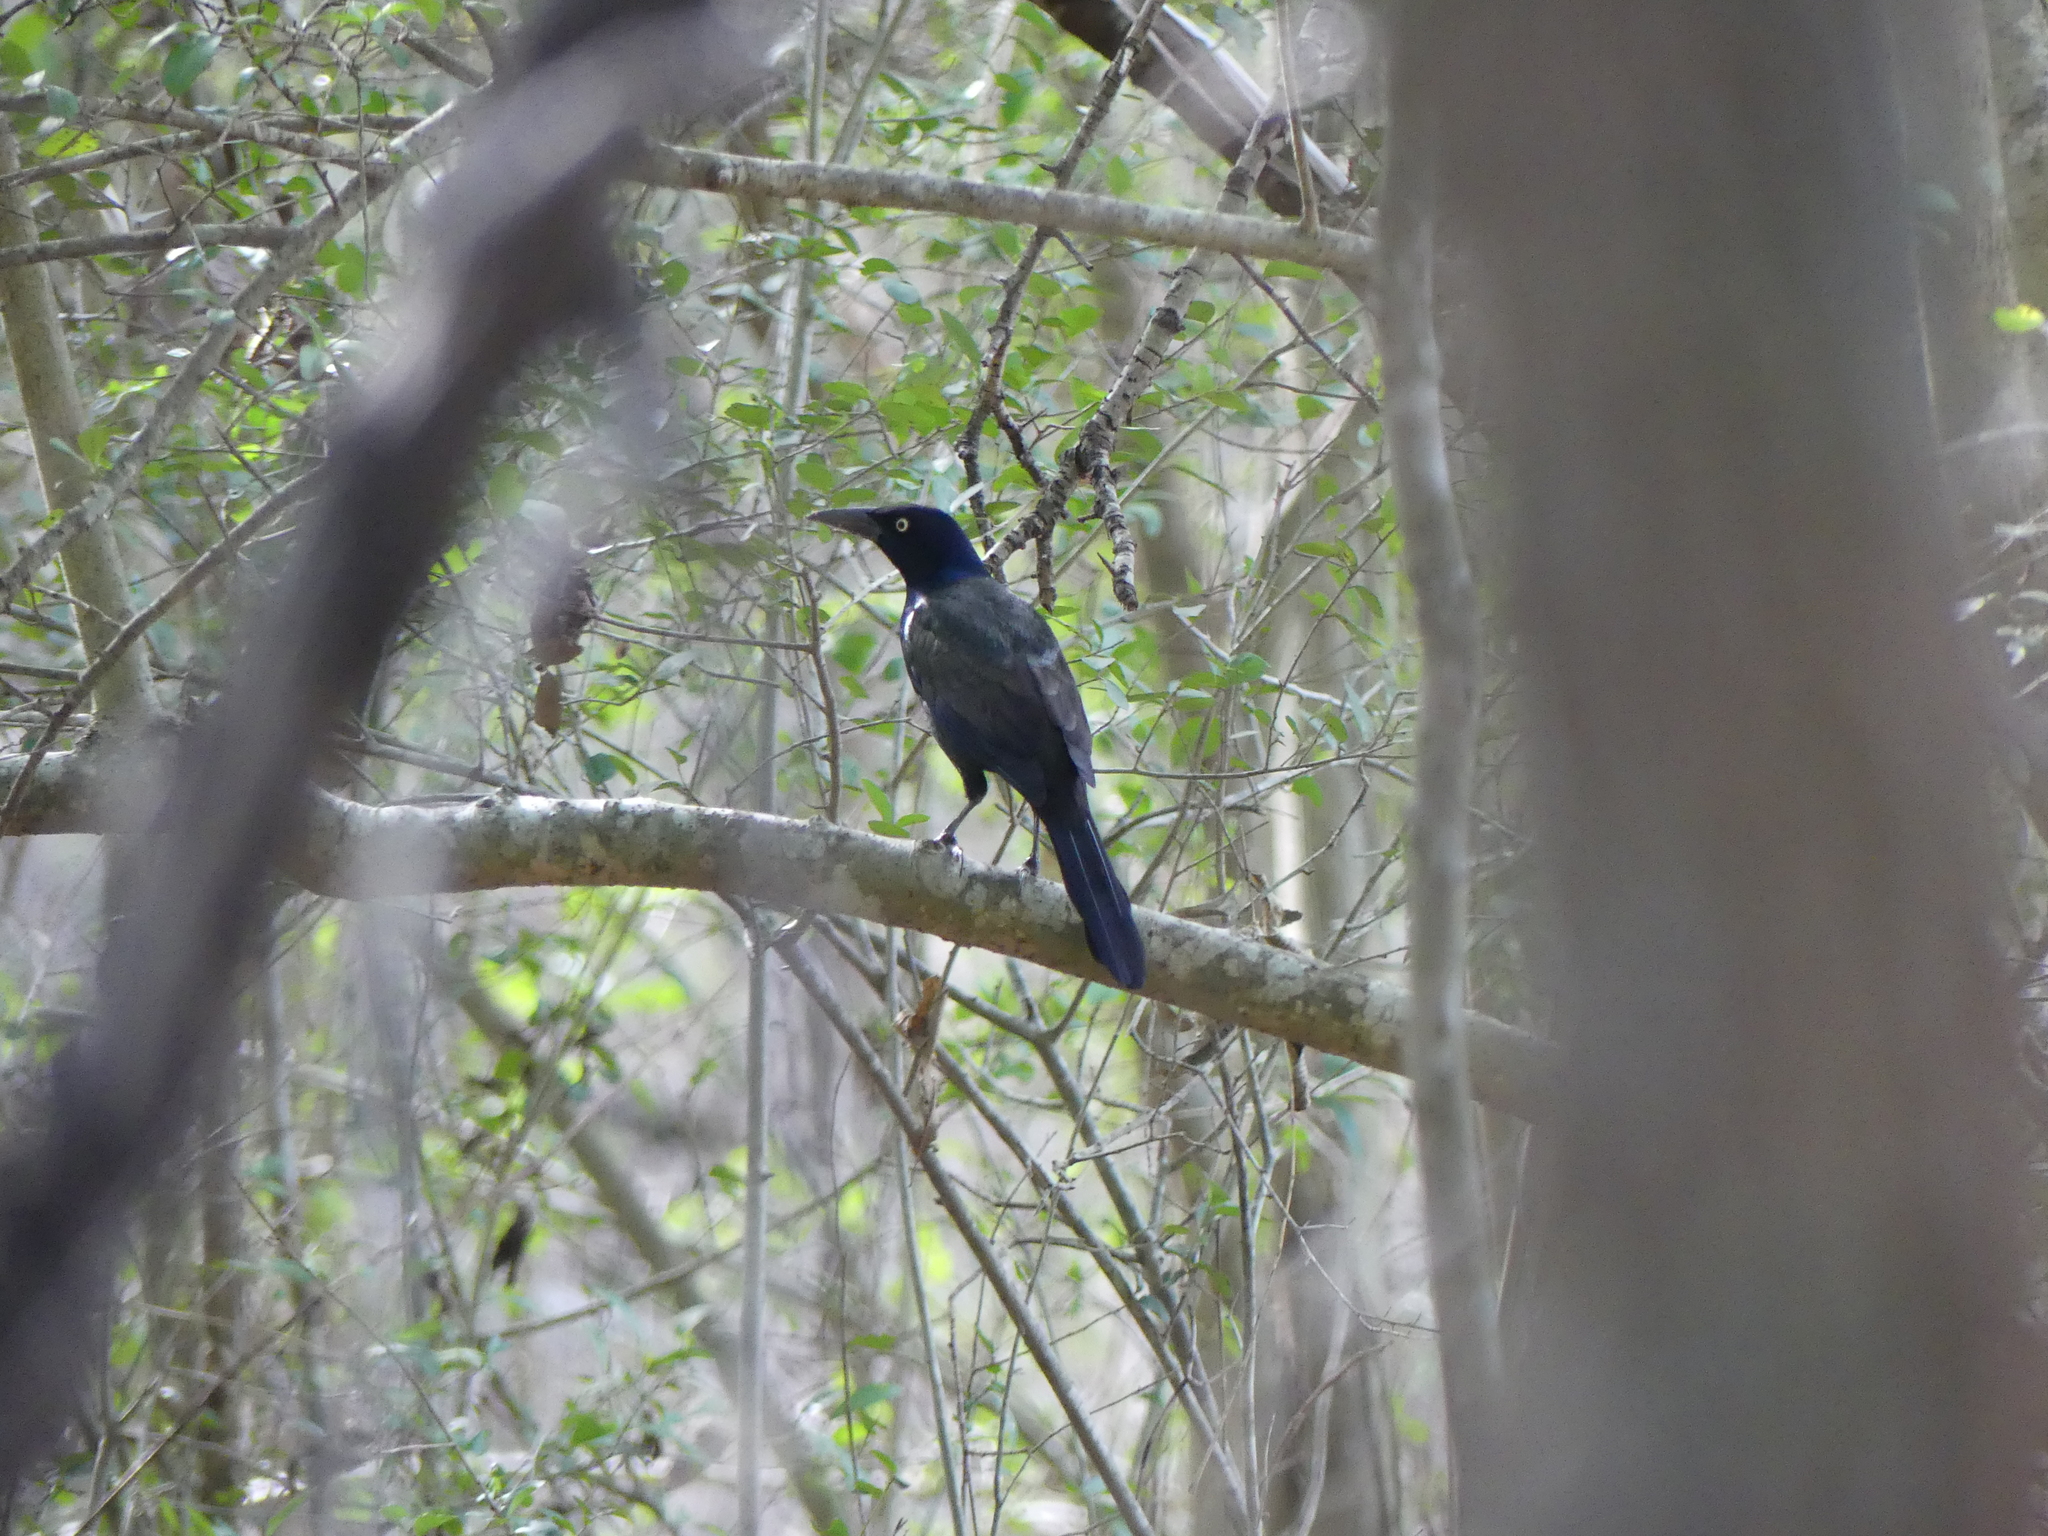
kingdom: Animalia
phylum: Chordata
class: Aves
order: Passeriformes
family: Icteridae
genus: Quiscalus
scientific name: Quiscalus mexicanus
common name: Great-tailed grackle
